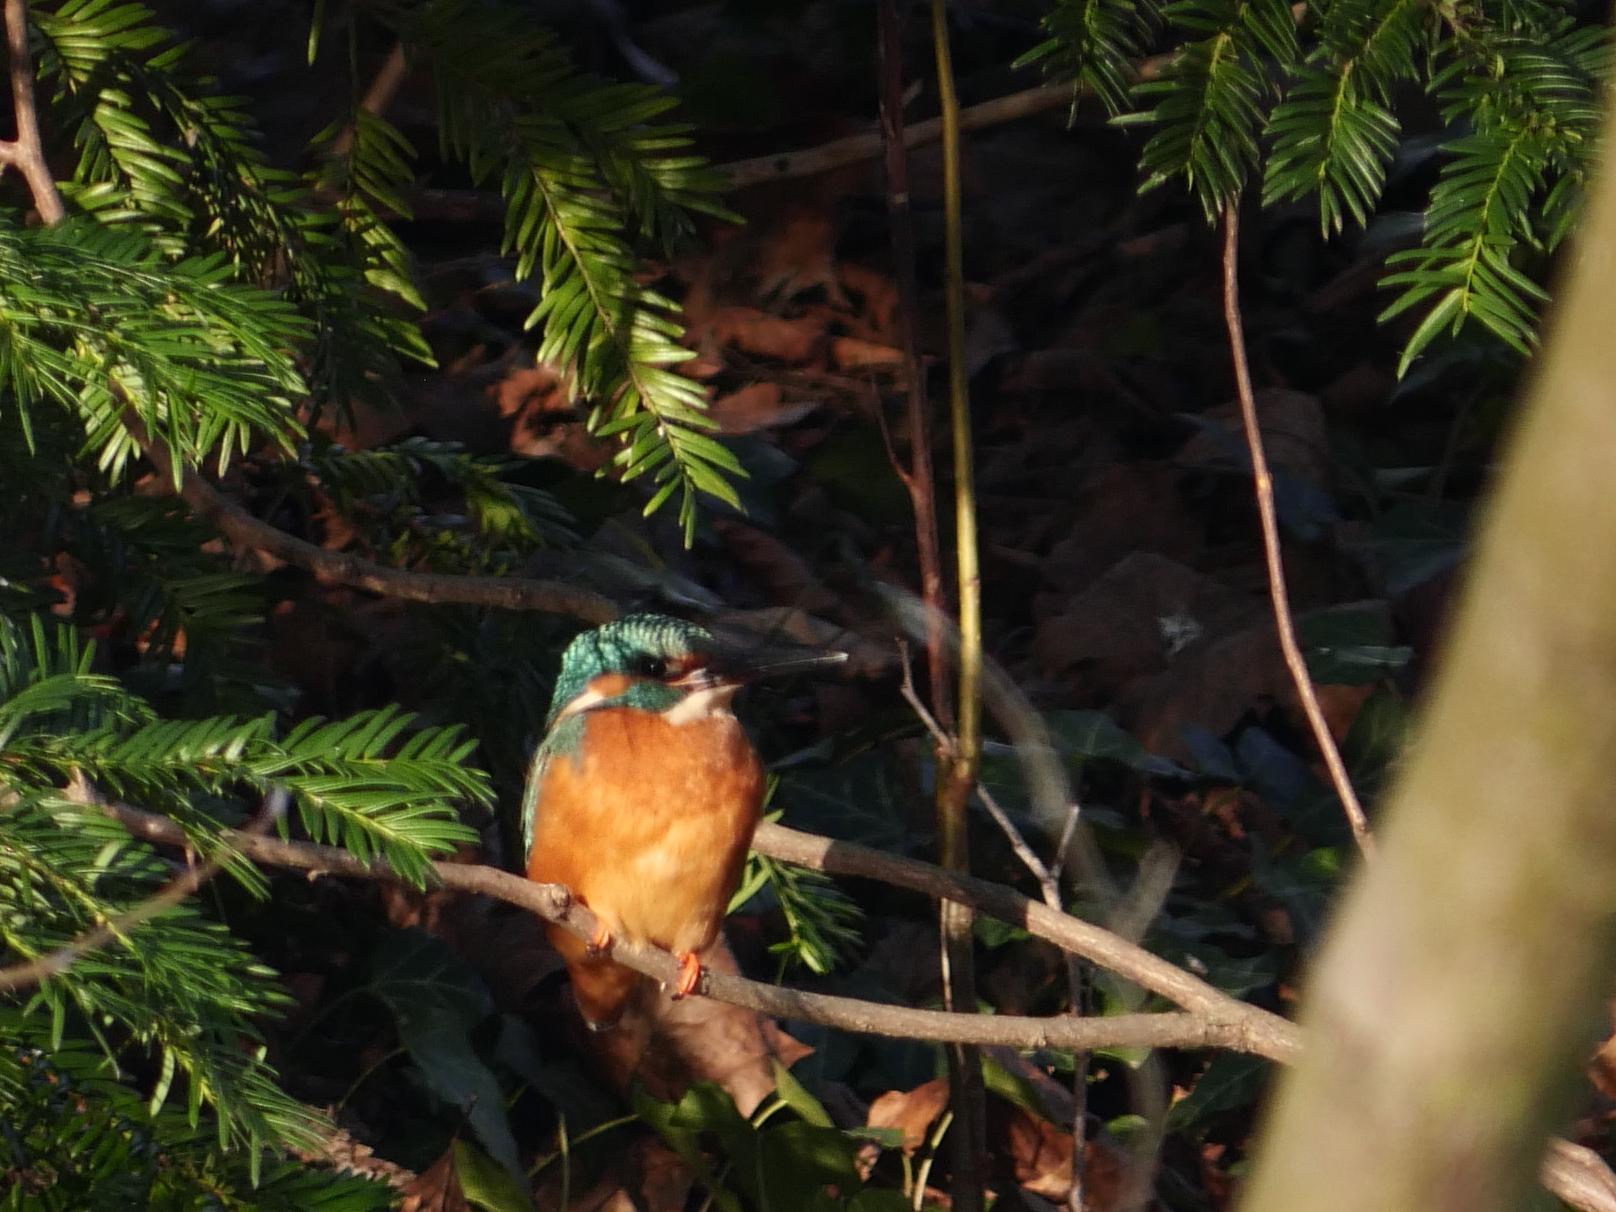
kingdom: Animalia
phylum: Chordata
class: Aves
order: Coraciiformes
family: Alcedinidae
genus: Alcedo
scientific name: Alcedo atthis
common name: Common kingfisher
